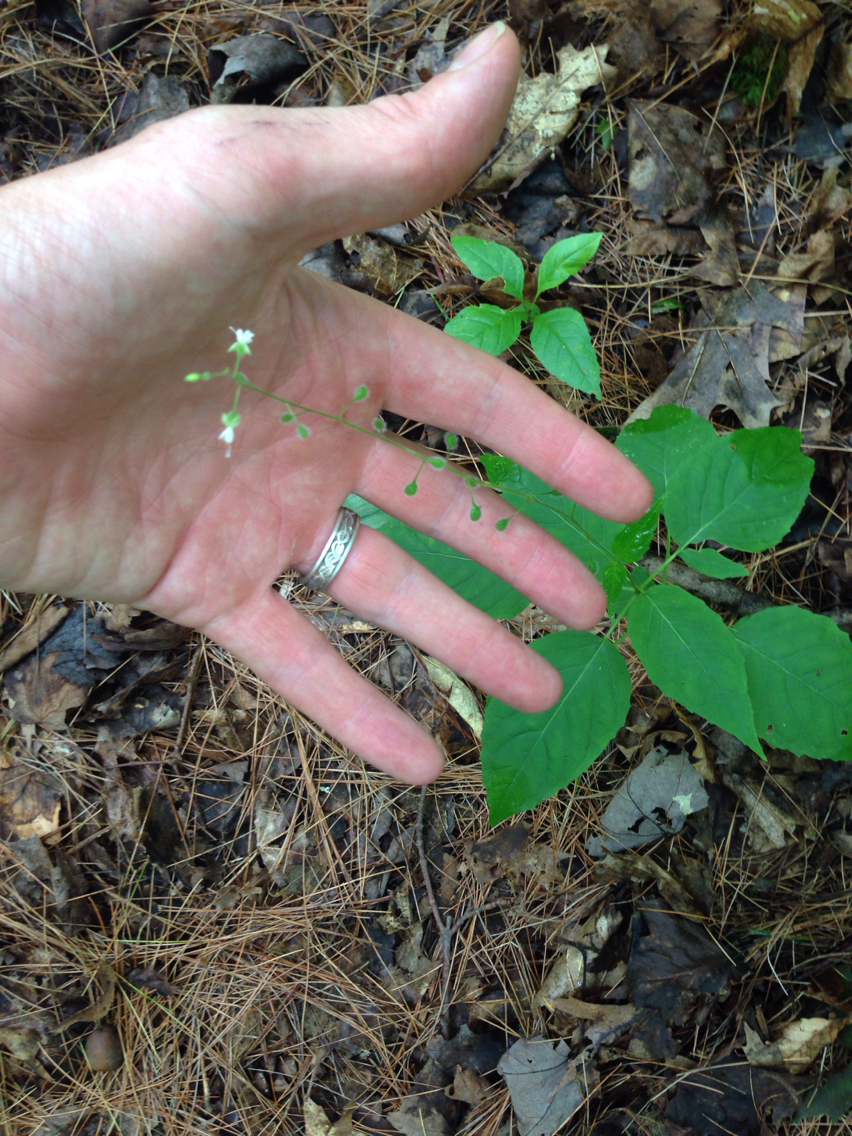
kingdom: Plantae
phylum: Tracheophyta
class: Magnoliopsida
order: Myrtales
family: Onagraceae
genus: Circaea
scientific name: Circaea canadensis
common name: Broad-leaved enchanter's nightshade
